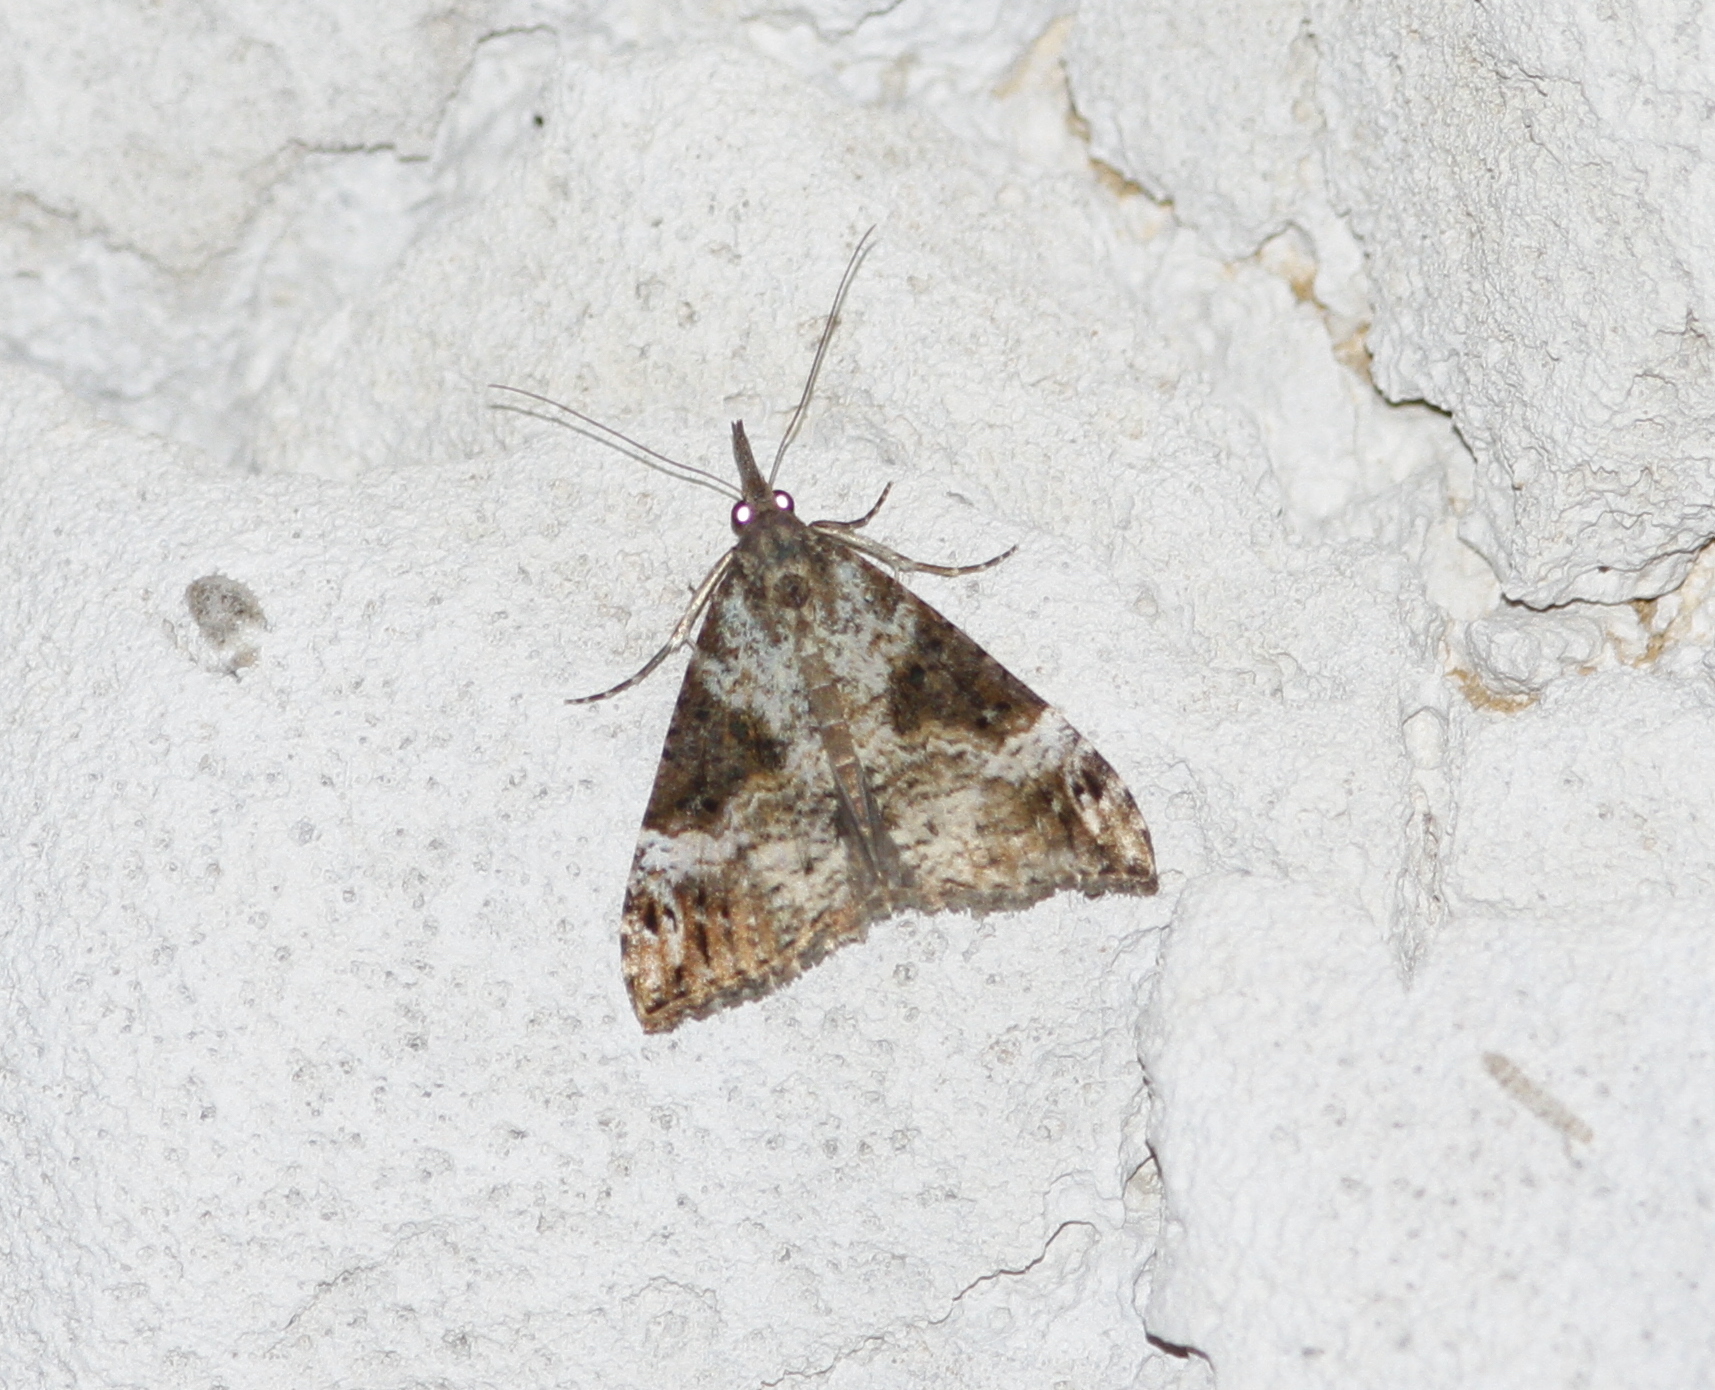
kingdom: Animalia
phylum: Arthropoda
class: Insecta
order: Lepidoptera
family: Erebidae
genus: Hypena
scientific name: Hypena obsitalis
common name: Bloxworth snout
